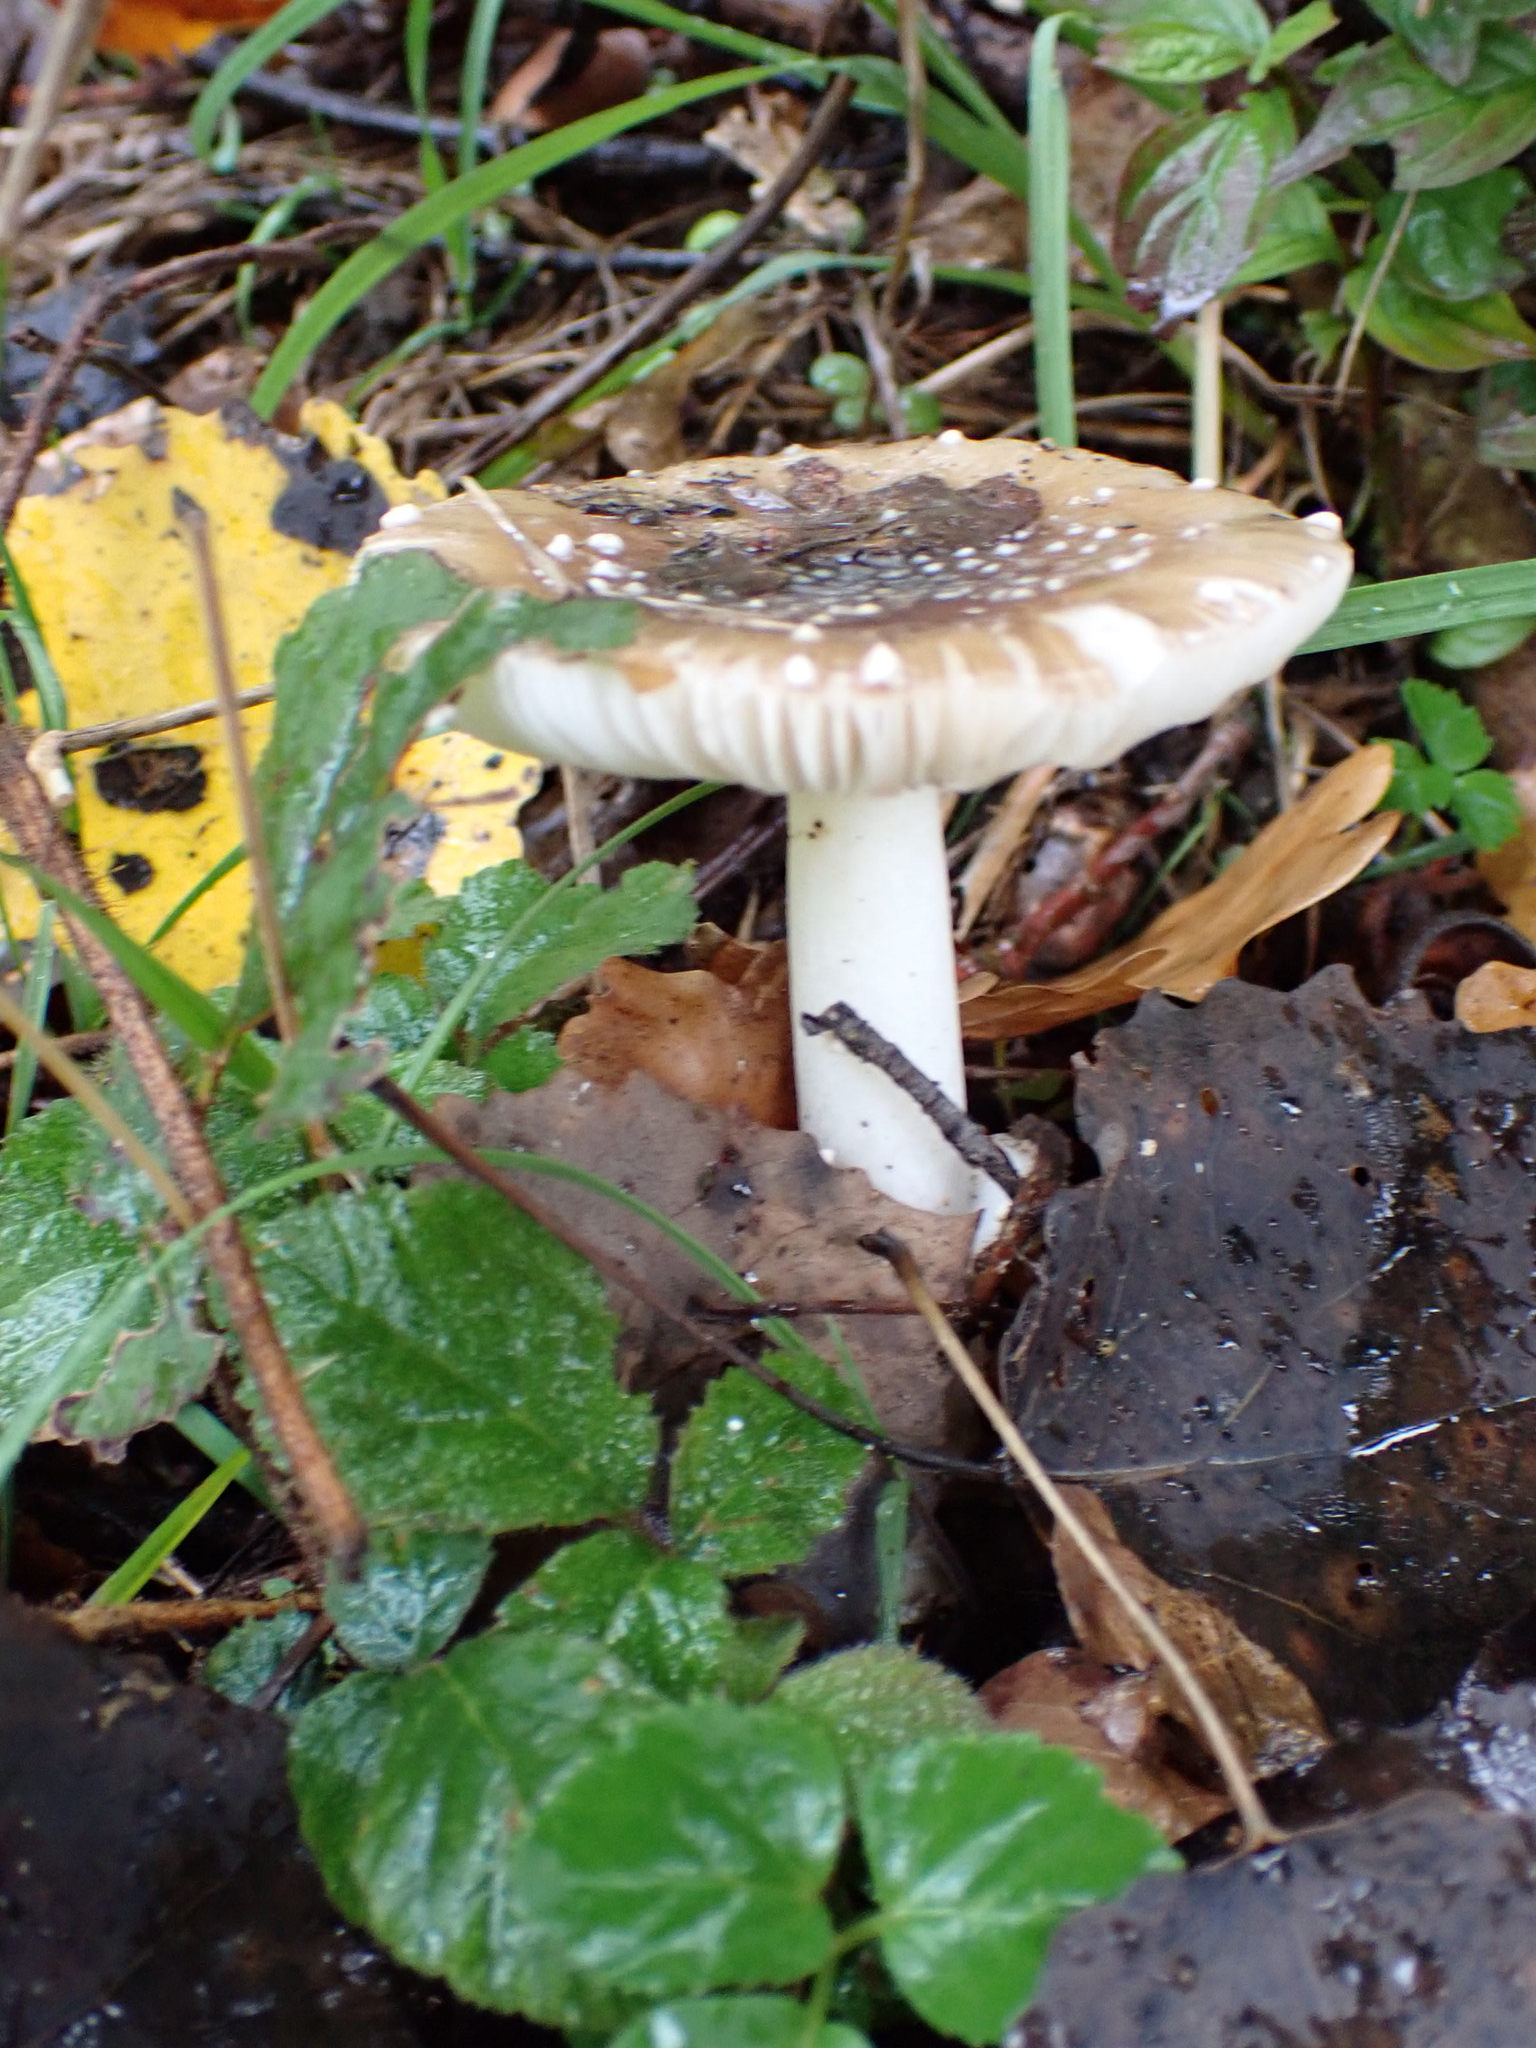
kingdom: Fungi
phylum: Basidiomycota
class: Agaricomycetes
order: Agaricales
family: Amanitaceae
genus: Amanita
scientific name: Amanita pantherina
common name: Panthercap
